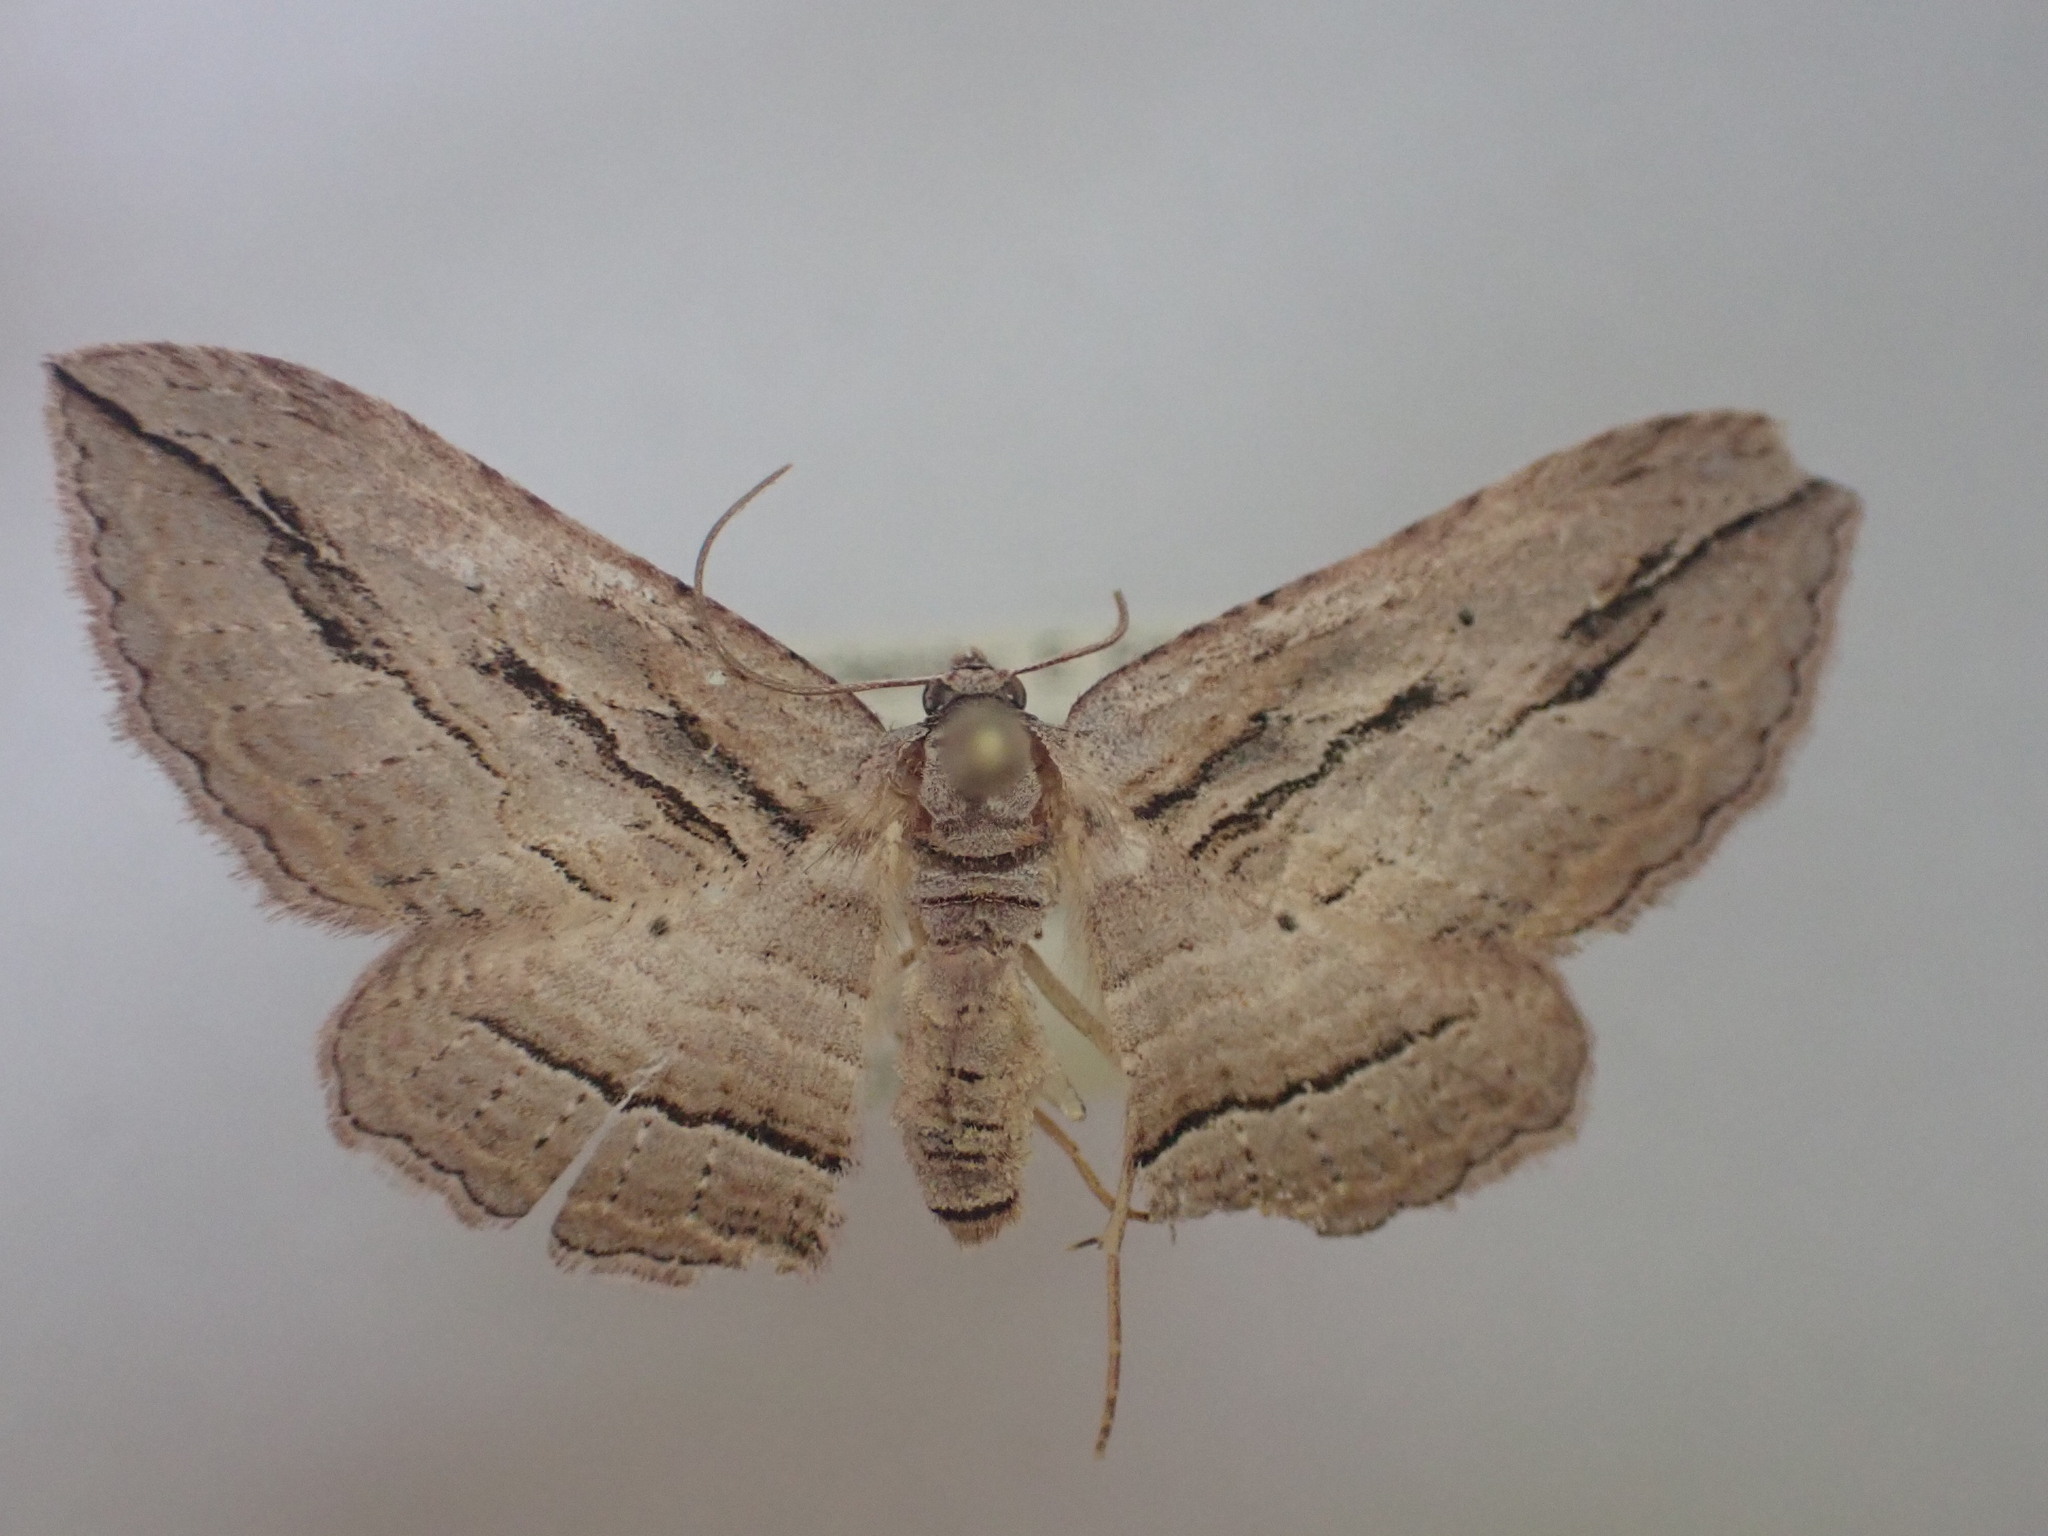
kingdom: Animalia
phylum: Arthropoda
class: Insecta
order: Lepidoptera
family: Geometridae
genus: Austrocidaria
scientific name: Austrocidaria gobiata
